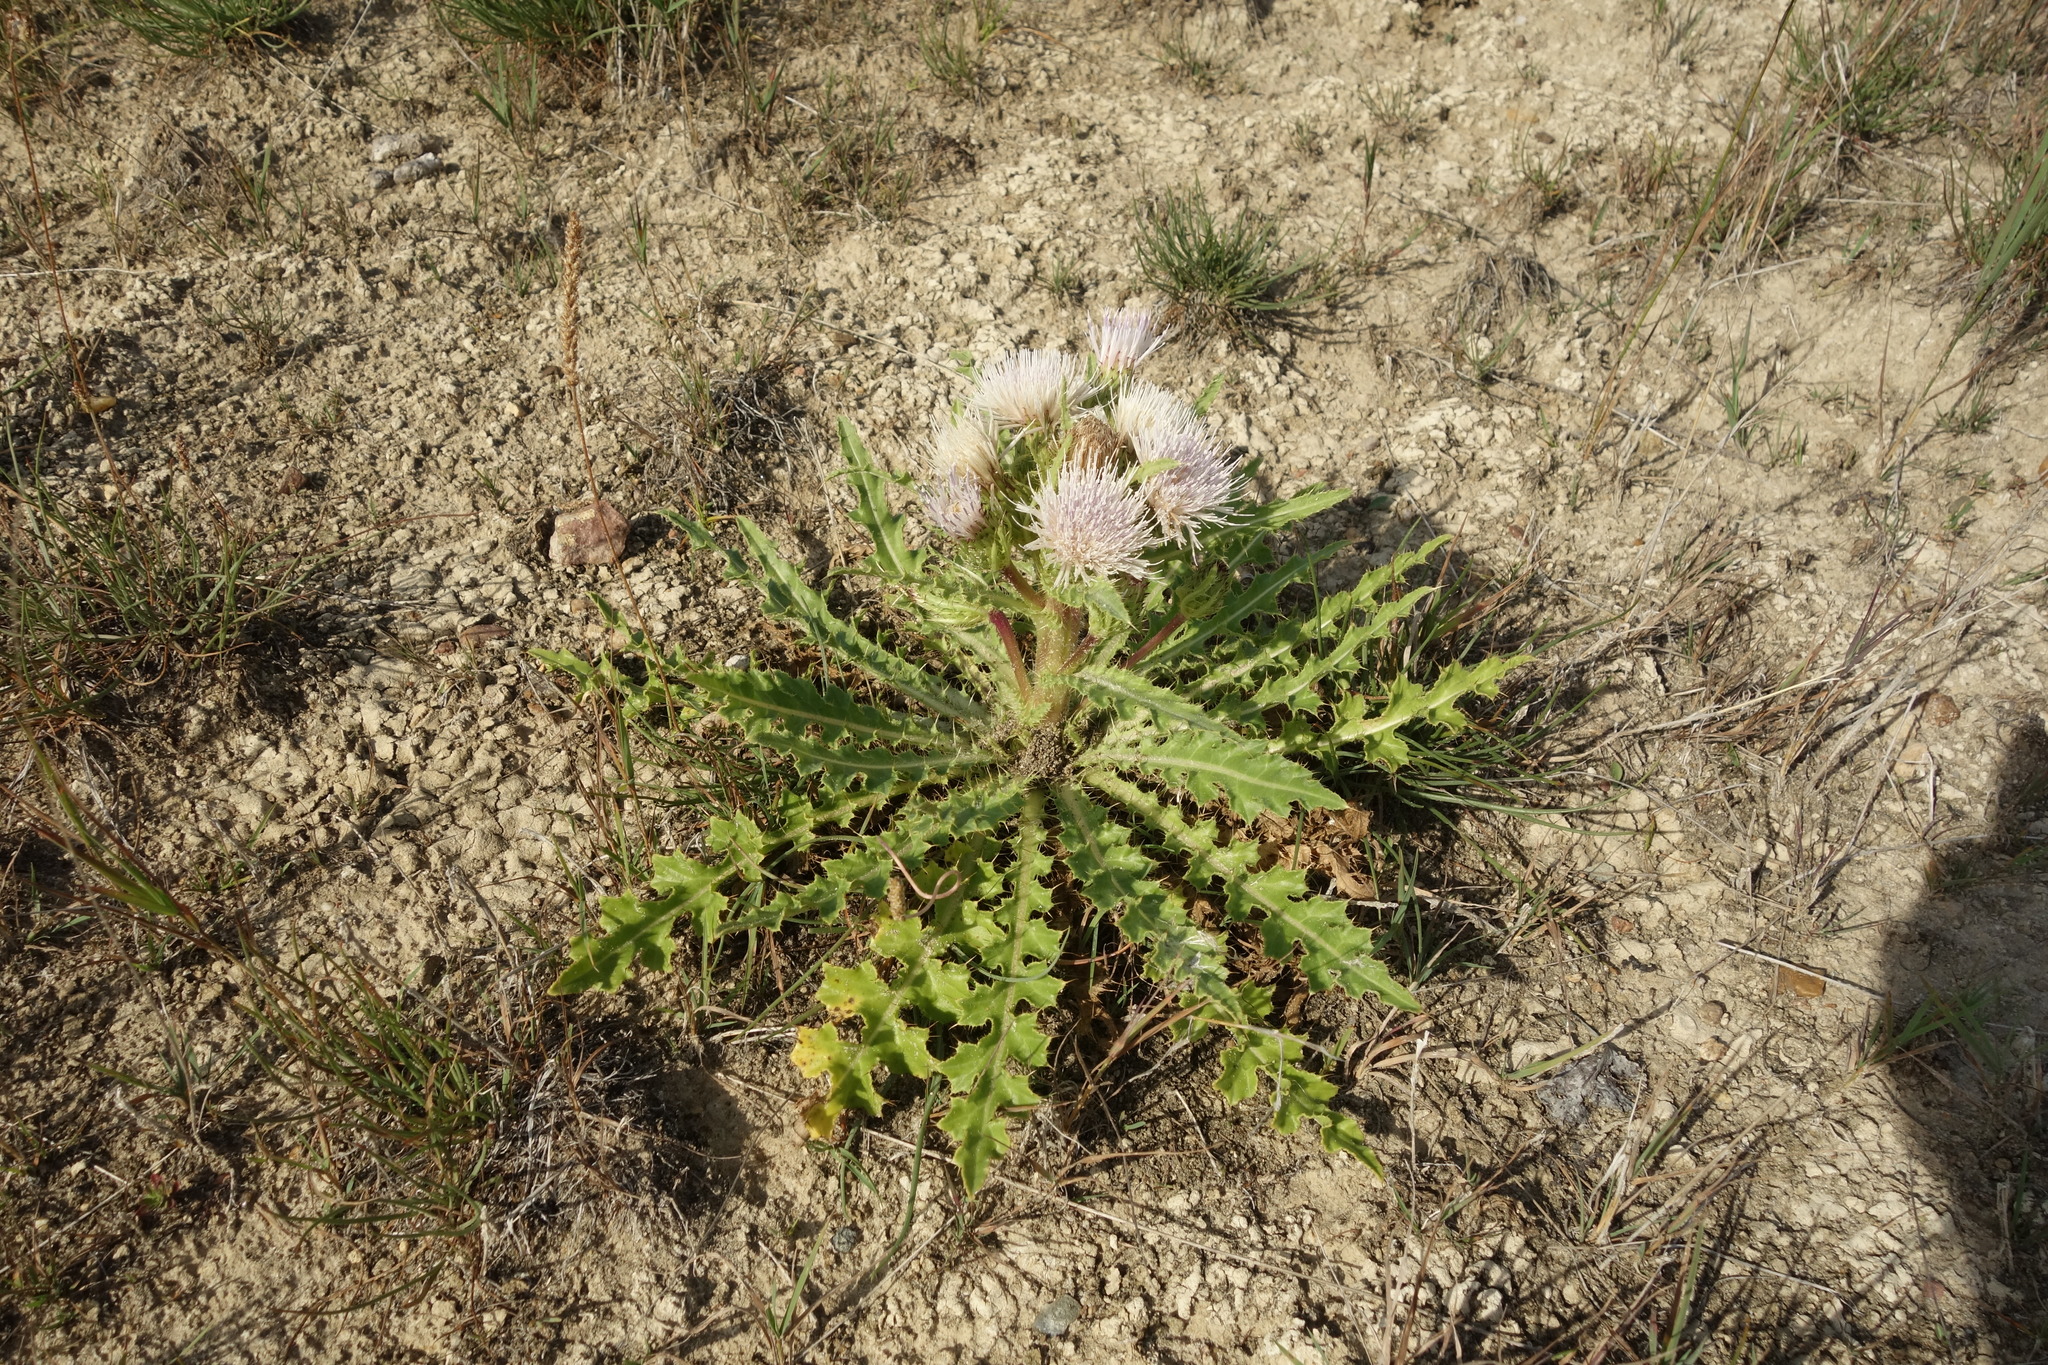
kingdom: Plantae
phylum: Tracheophyta
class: Magnoliopsida
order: Asterales
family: Asteraceae
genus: Cirsium
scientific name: Cirsium esculentum
